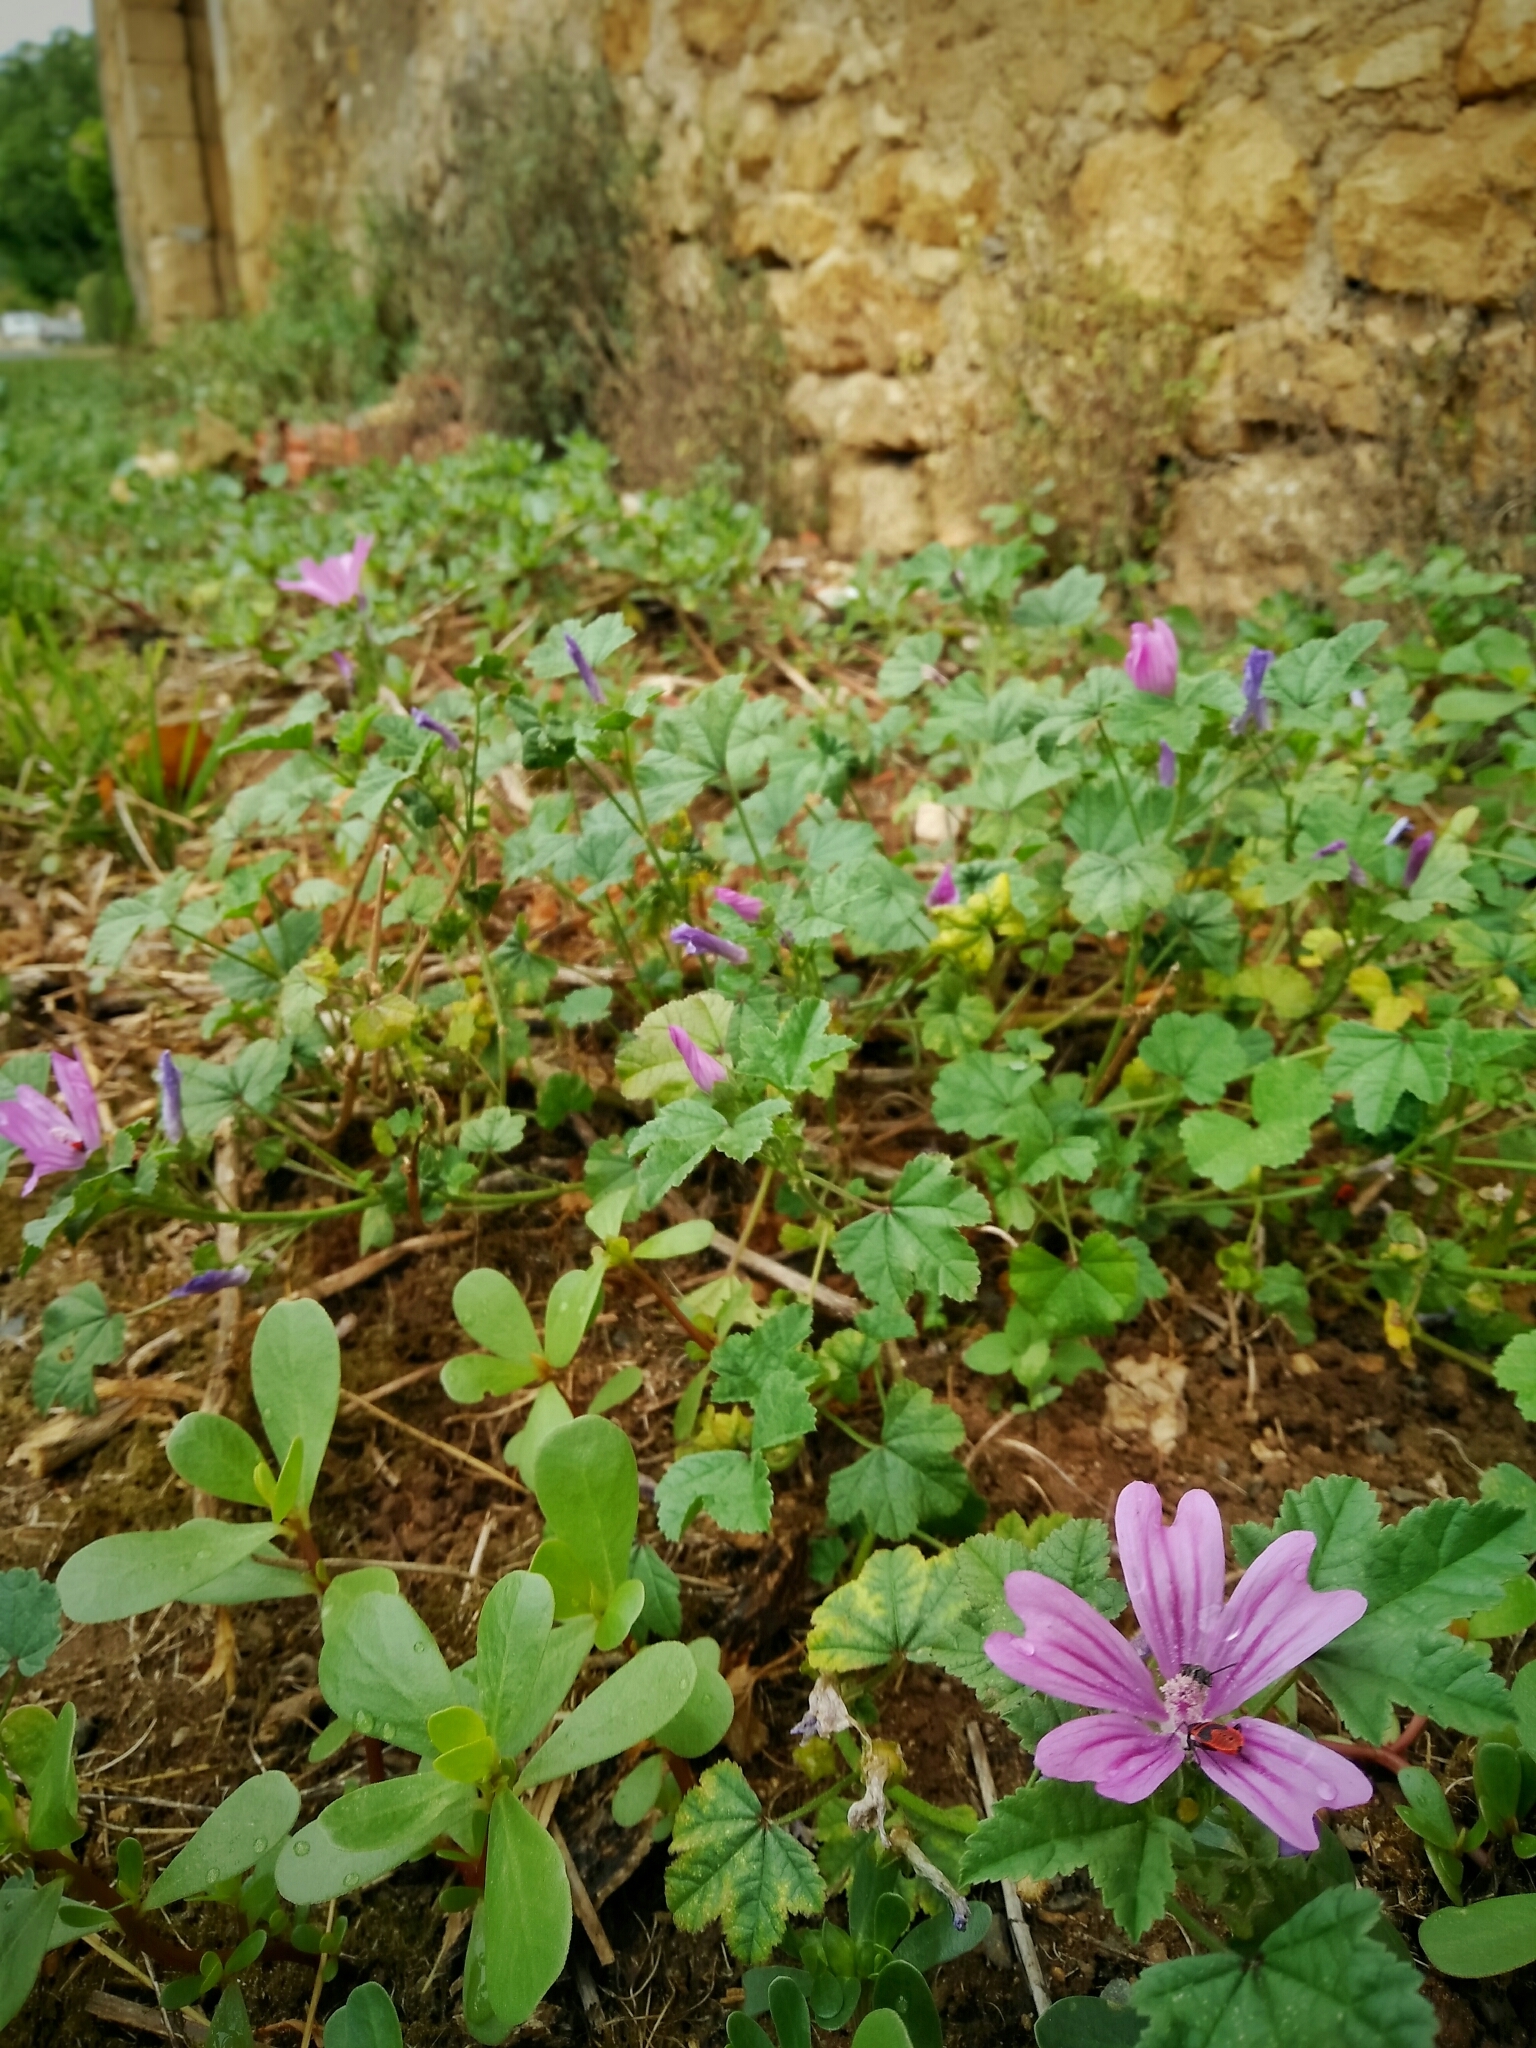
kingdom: Plantae
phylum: Tracheophyta
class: Magnoliopsida
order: Malvales
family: Malvaceae
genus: Malva
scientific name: Malva sylvestris
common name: Common mallow
